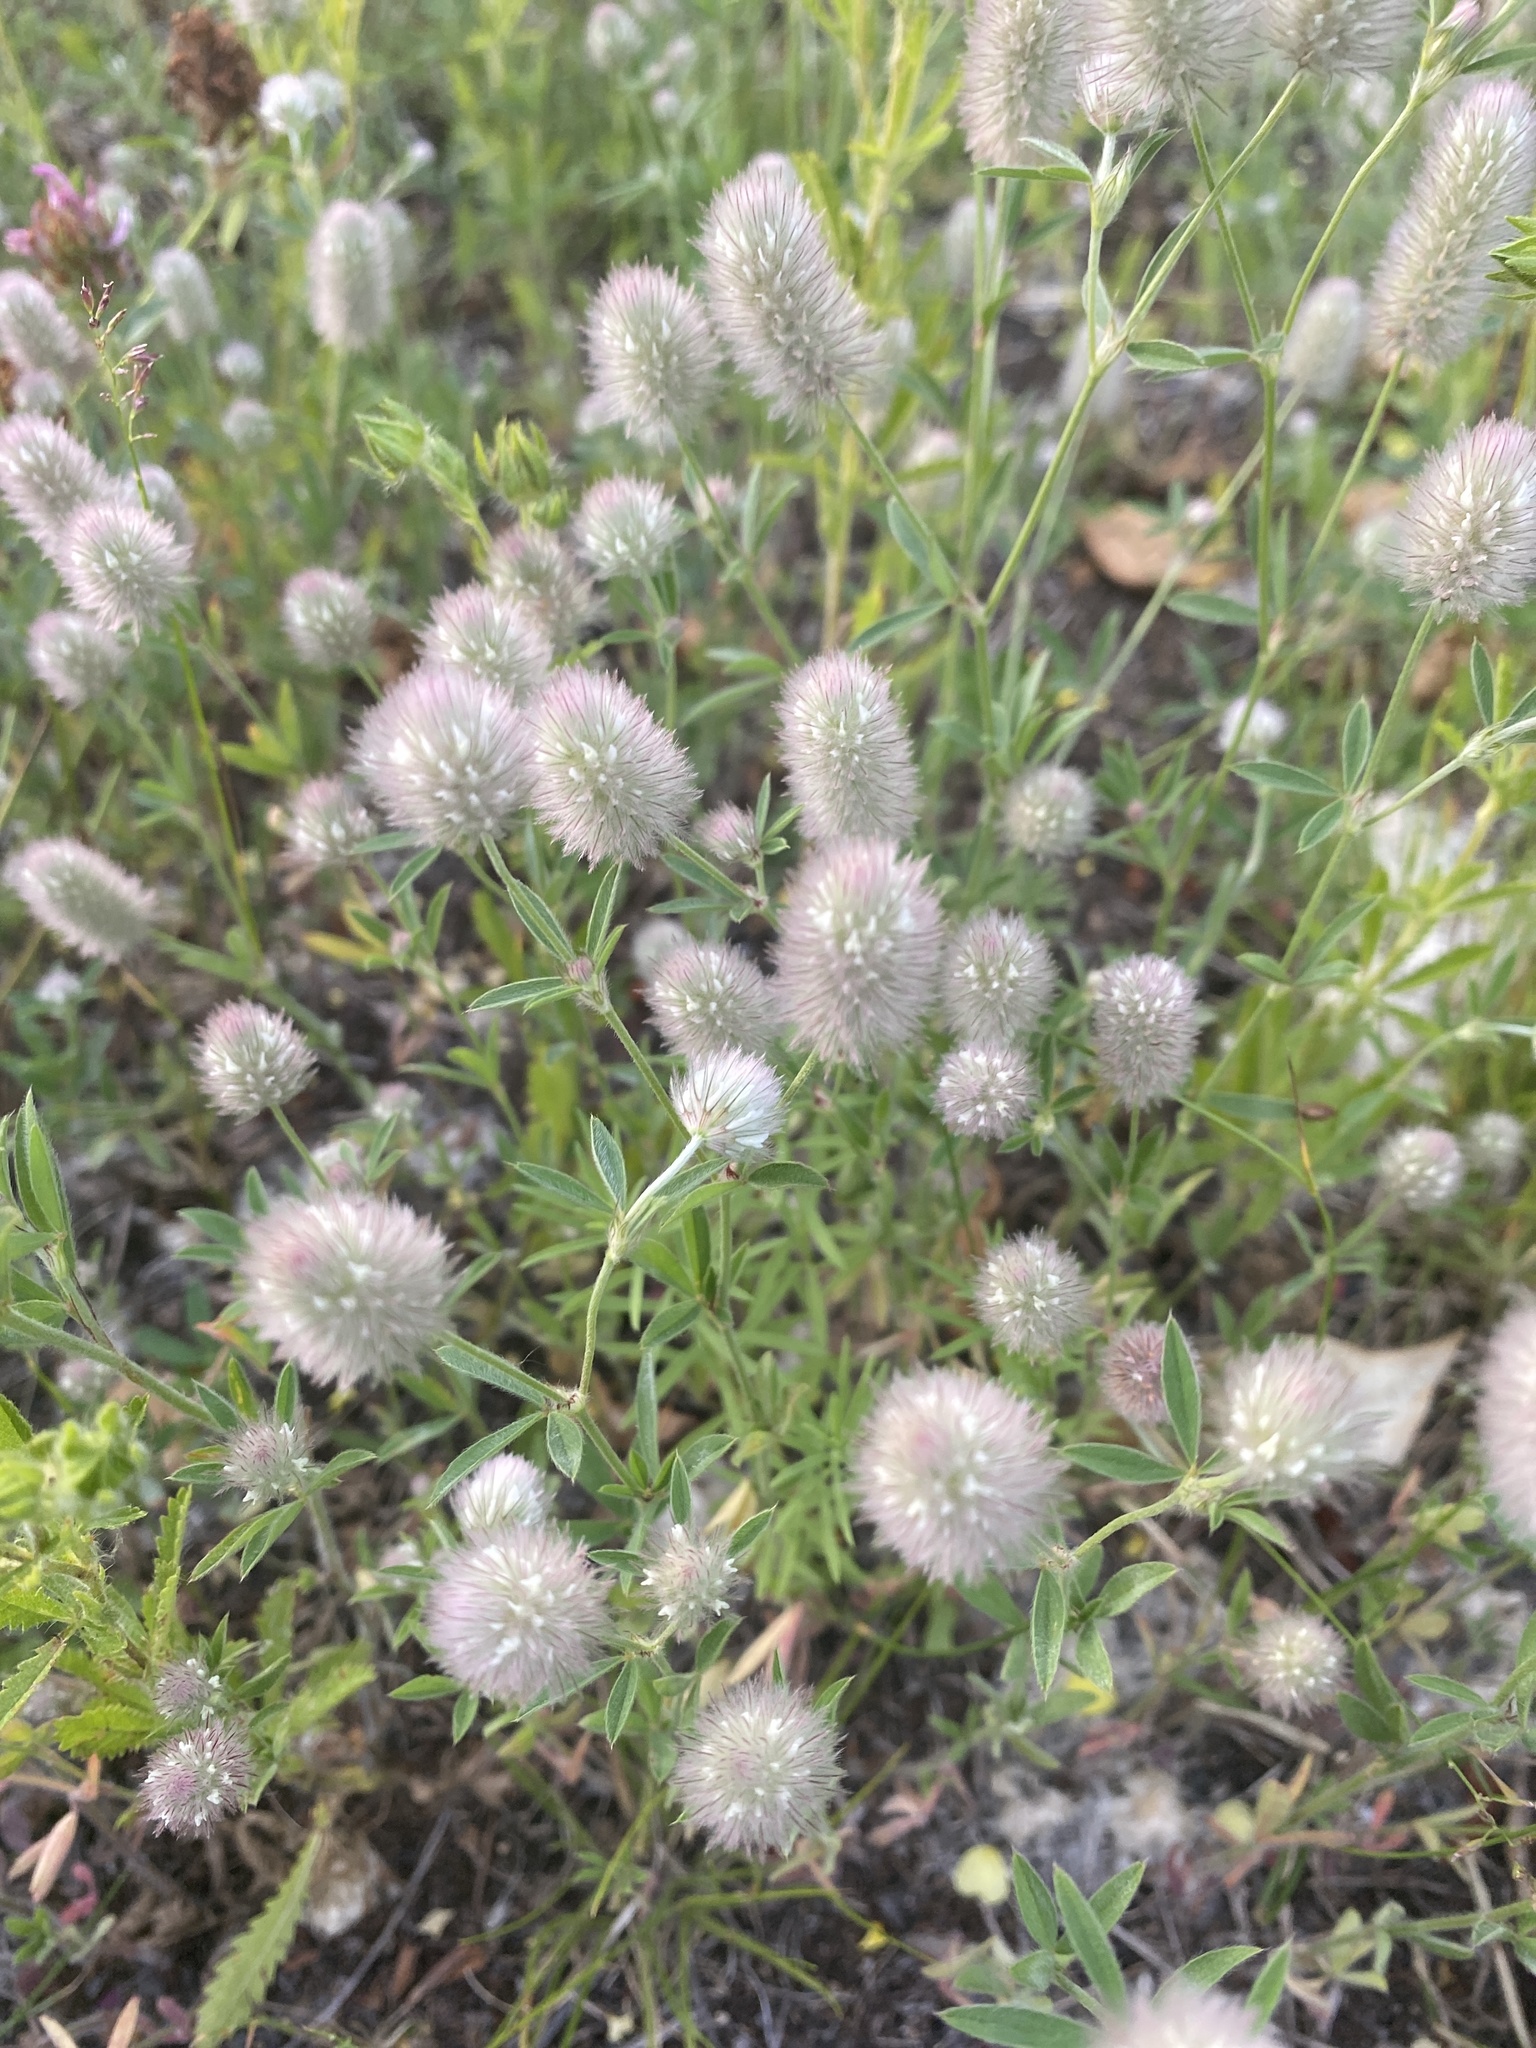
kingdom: Plantae
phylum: Tracheophyta
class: Magnoliopsida
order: Fabales
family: Fabaceae
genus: Trifolium
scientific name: Trifolium arvense
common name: Hare's-foot clover
